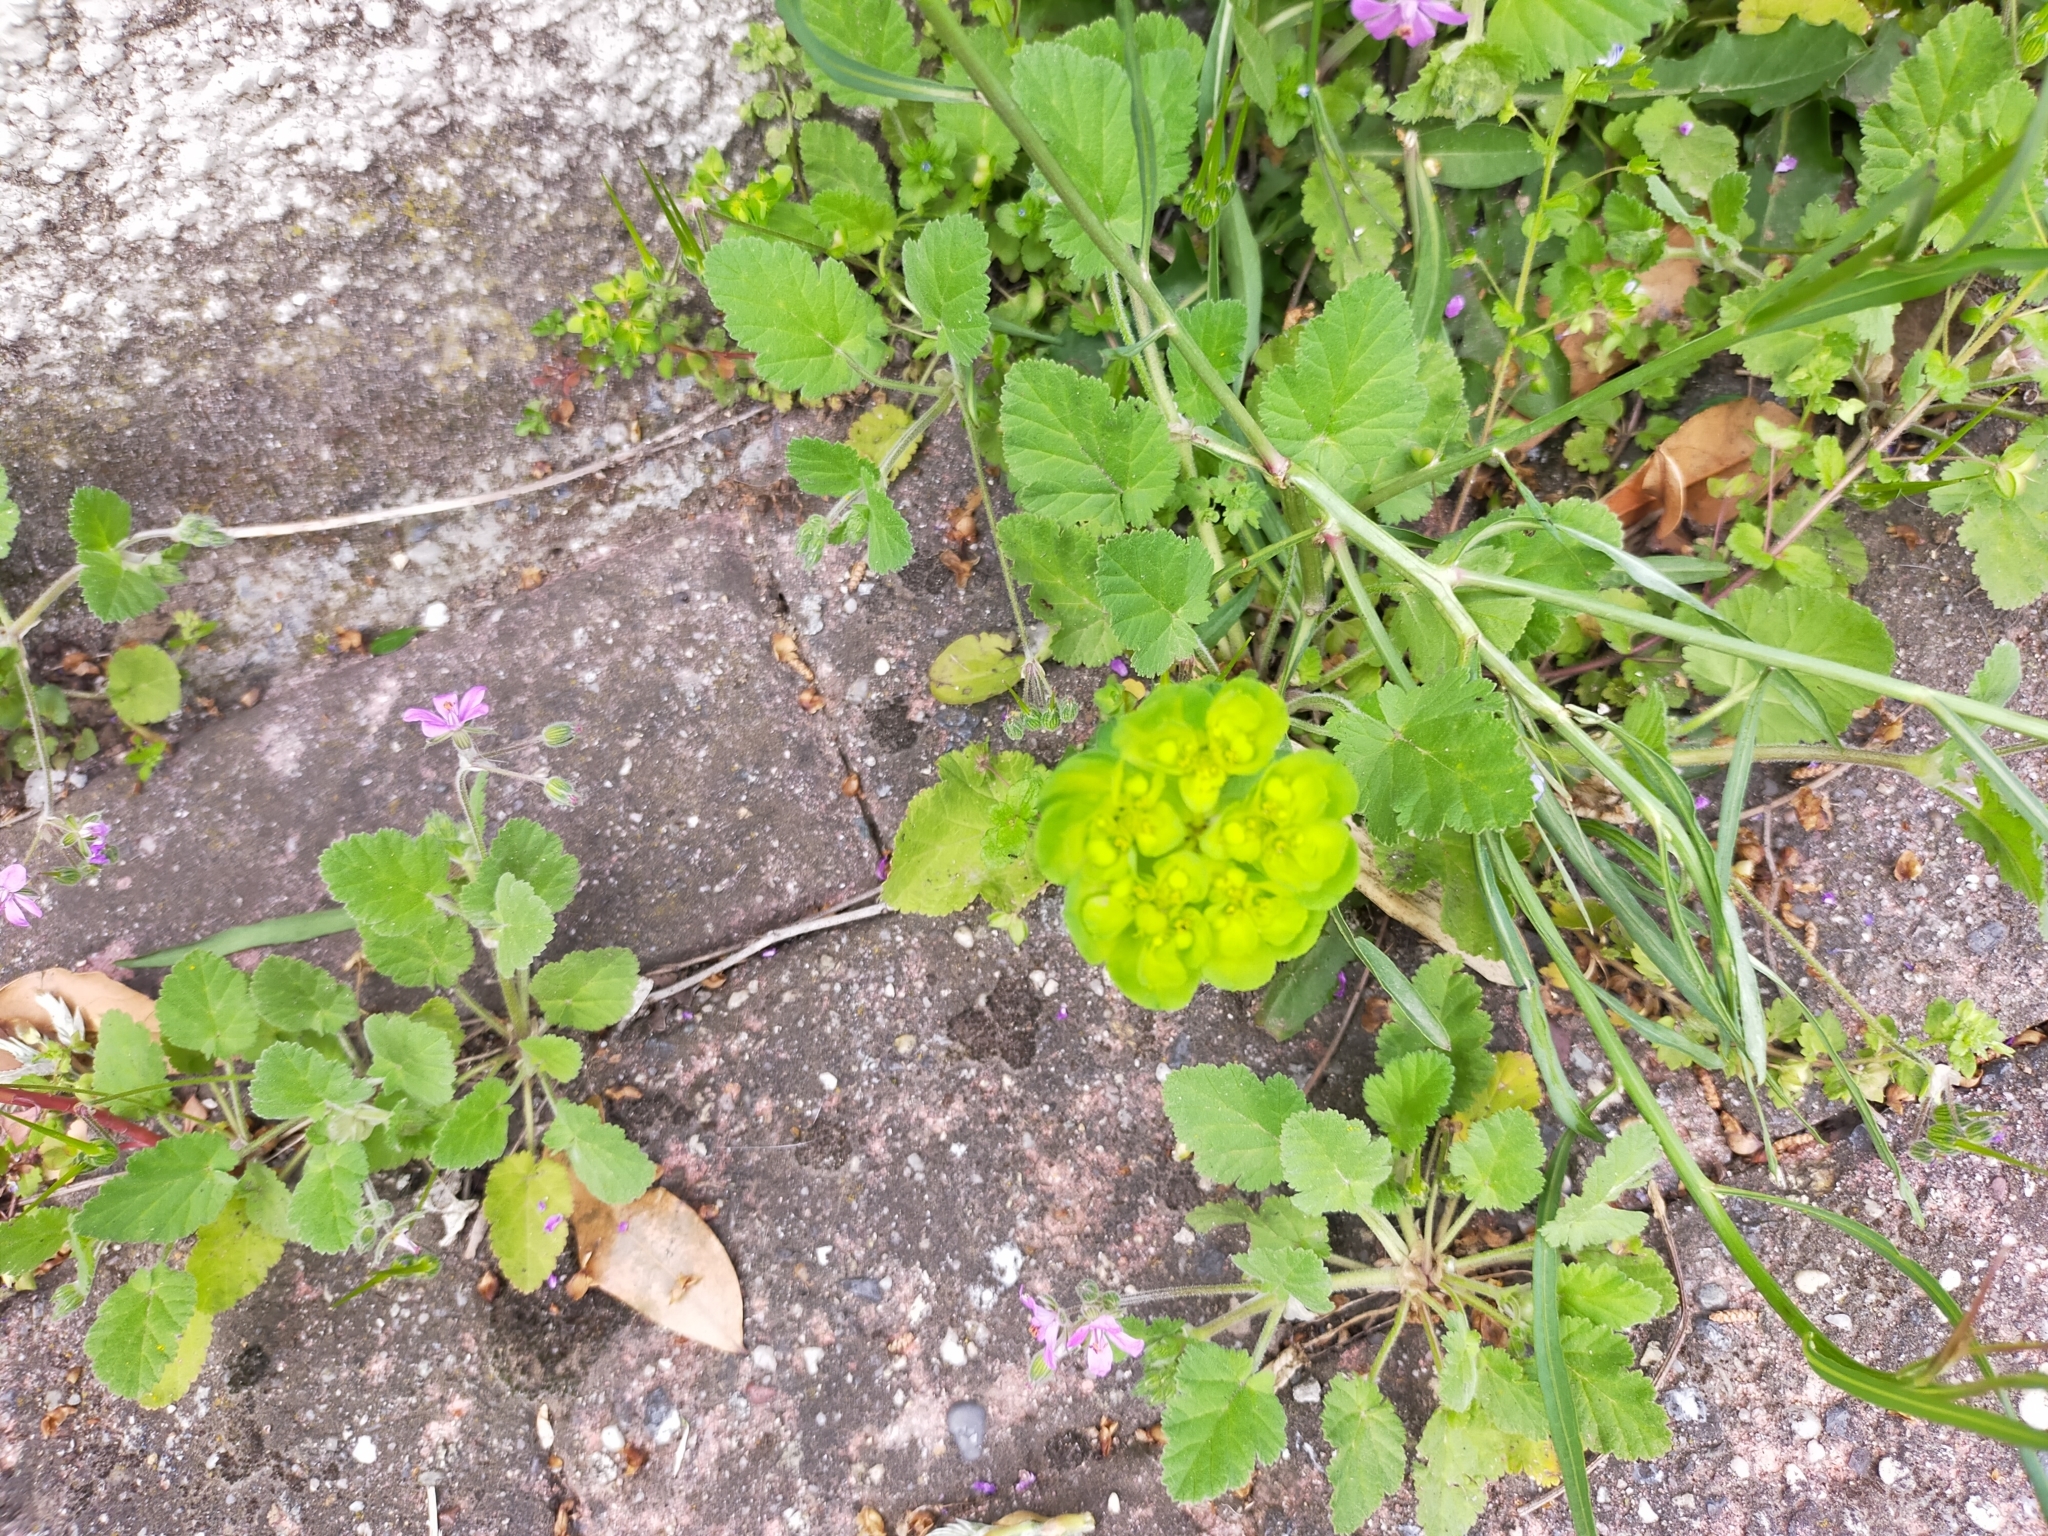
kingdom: Plantae
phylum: Tracheophyta
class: Magnoliopsida
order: Malpighiales
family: Euphorbiaceae
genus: Euphorbia
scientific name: Euphorbia helioscopia
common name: Sun spurge
